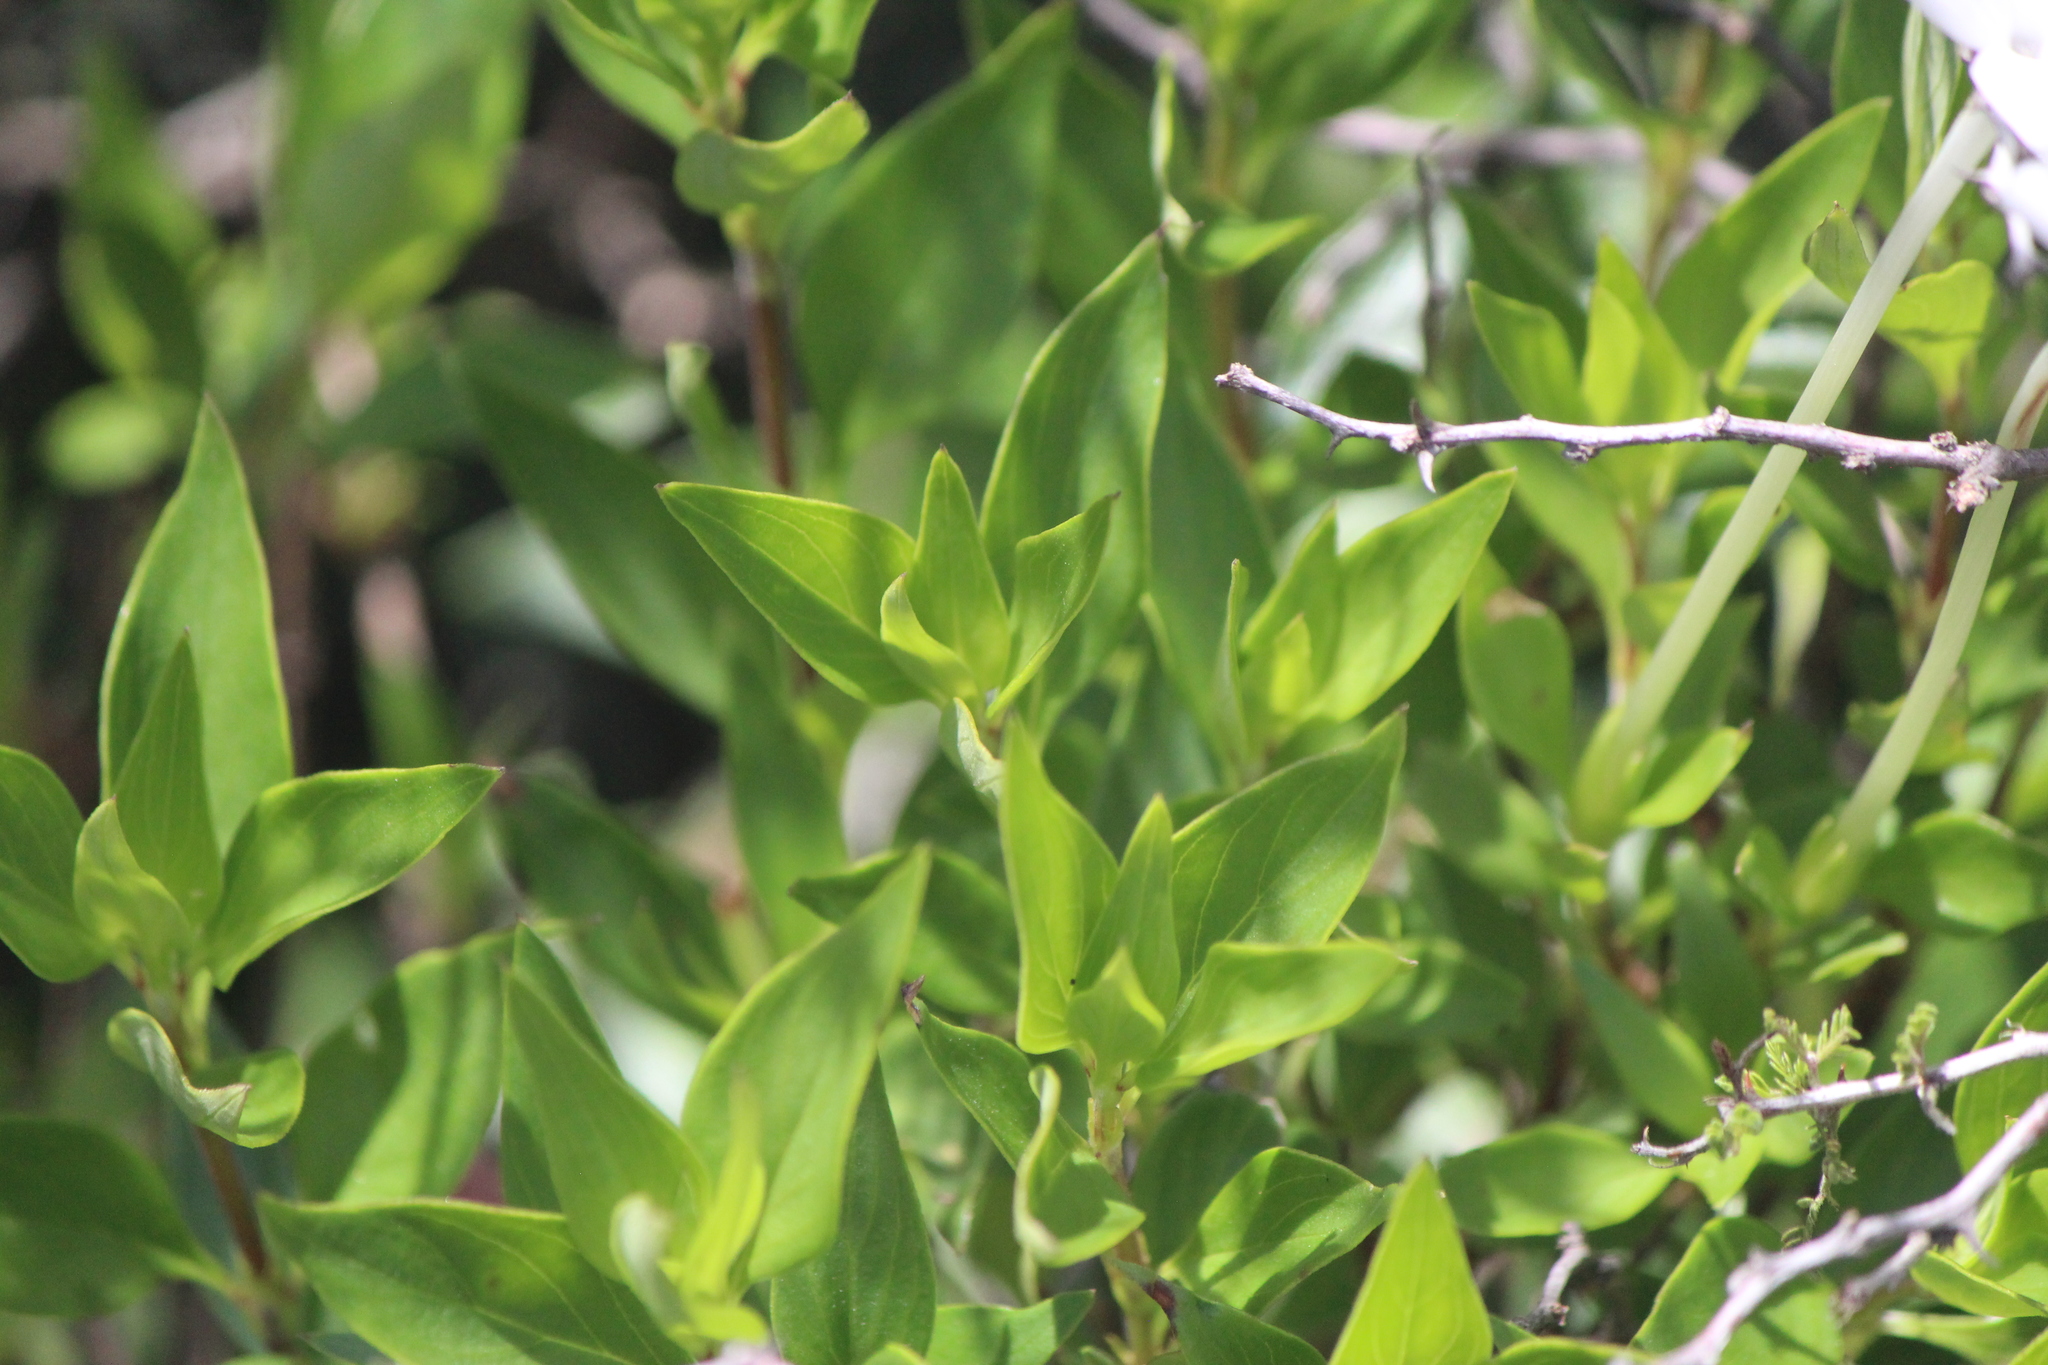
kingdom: Plantae
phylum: Tracheophyta
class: Magnoliopsida
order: Gentianales
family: Rubiaceae
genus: Bouvardia
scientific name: Bouvardia longiflora
